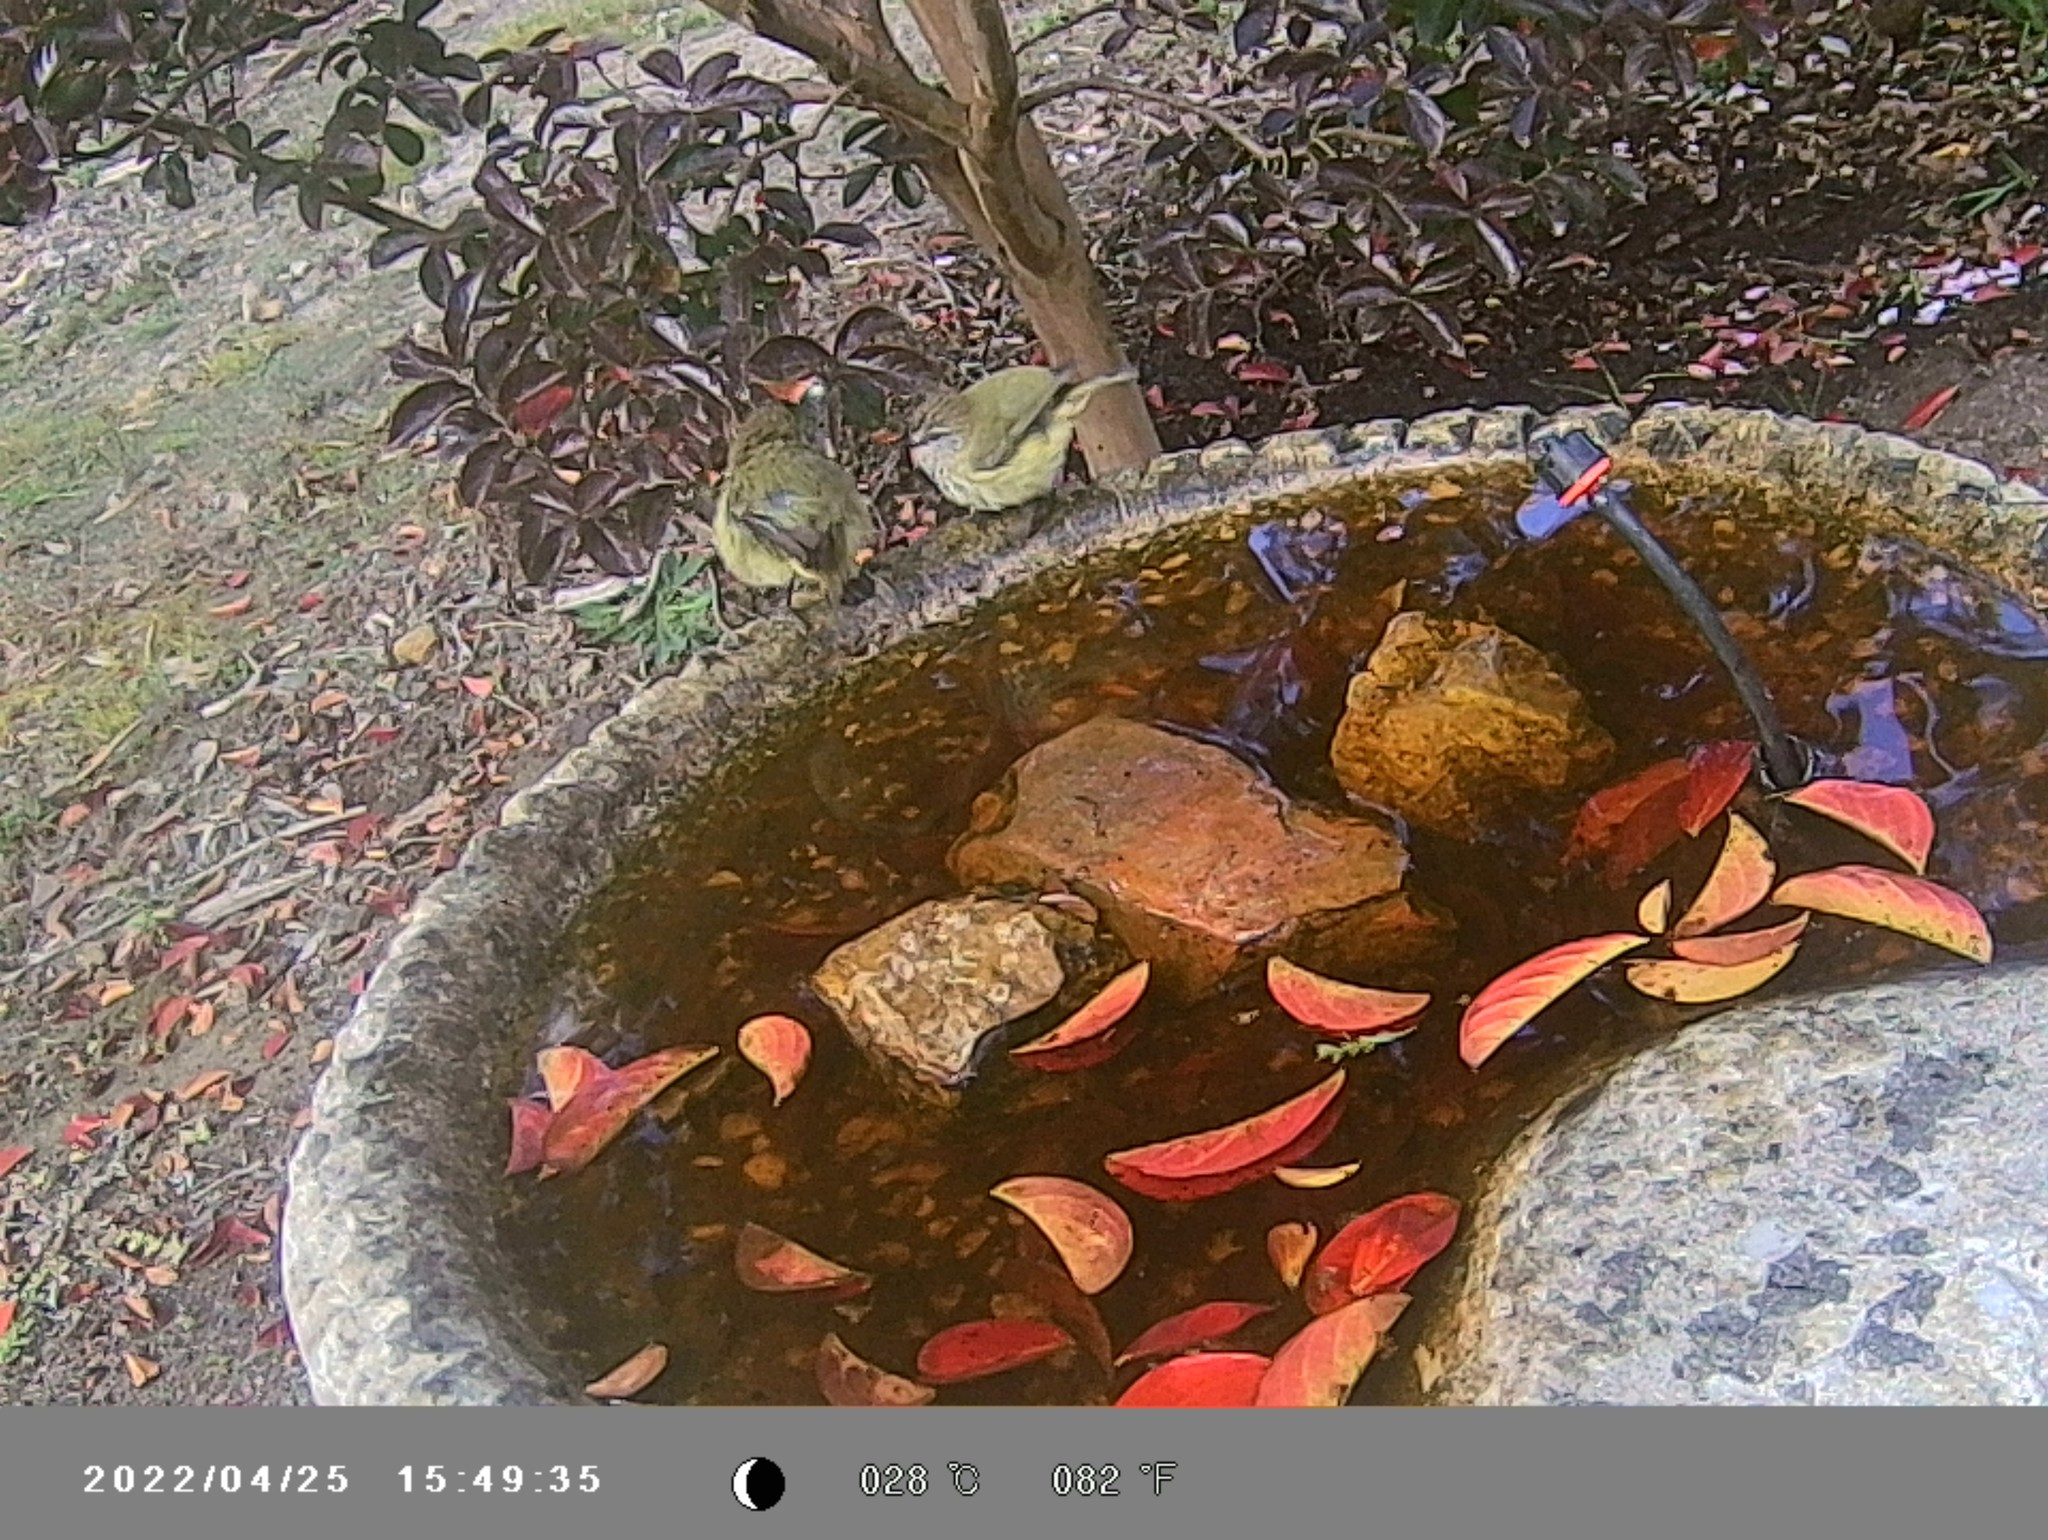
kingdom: Animalia
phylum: Chordata
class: Aves
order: Passeriformes
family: Acanthizidae
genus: Acanthiza
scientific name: Acanthiza lineata
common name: Striated thornbill
